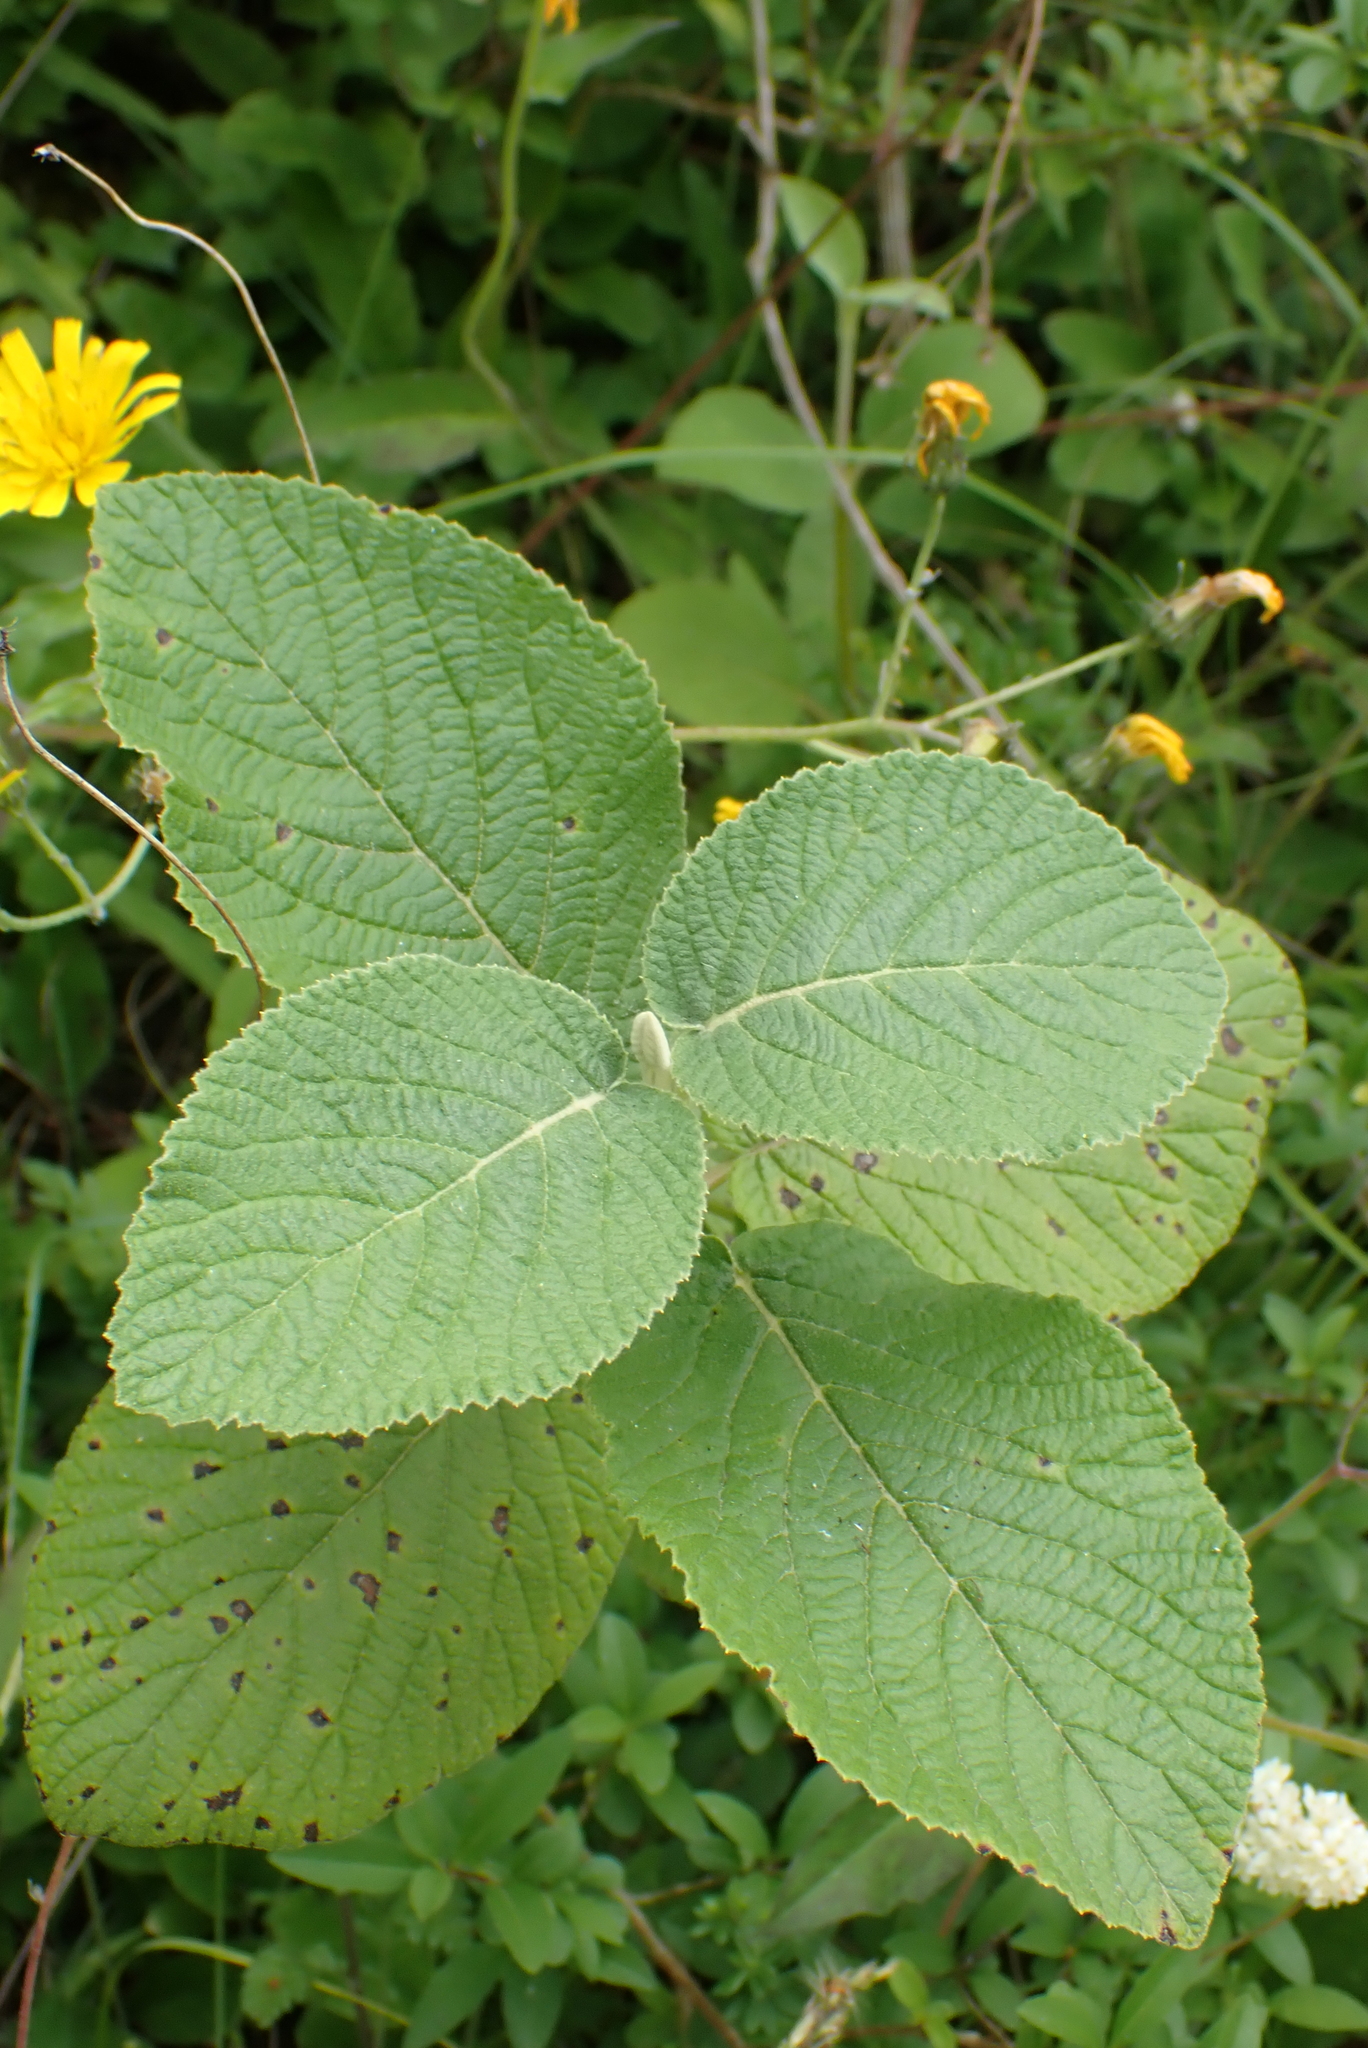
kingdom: Plantae
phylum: Tracheophyta
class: Magnoliopsida
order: Dipsacales
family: Viburnaceae
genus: Viburnum
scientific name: Viburnum lantana
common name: Wayfaring tree
